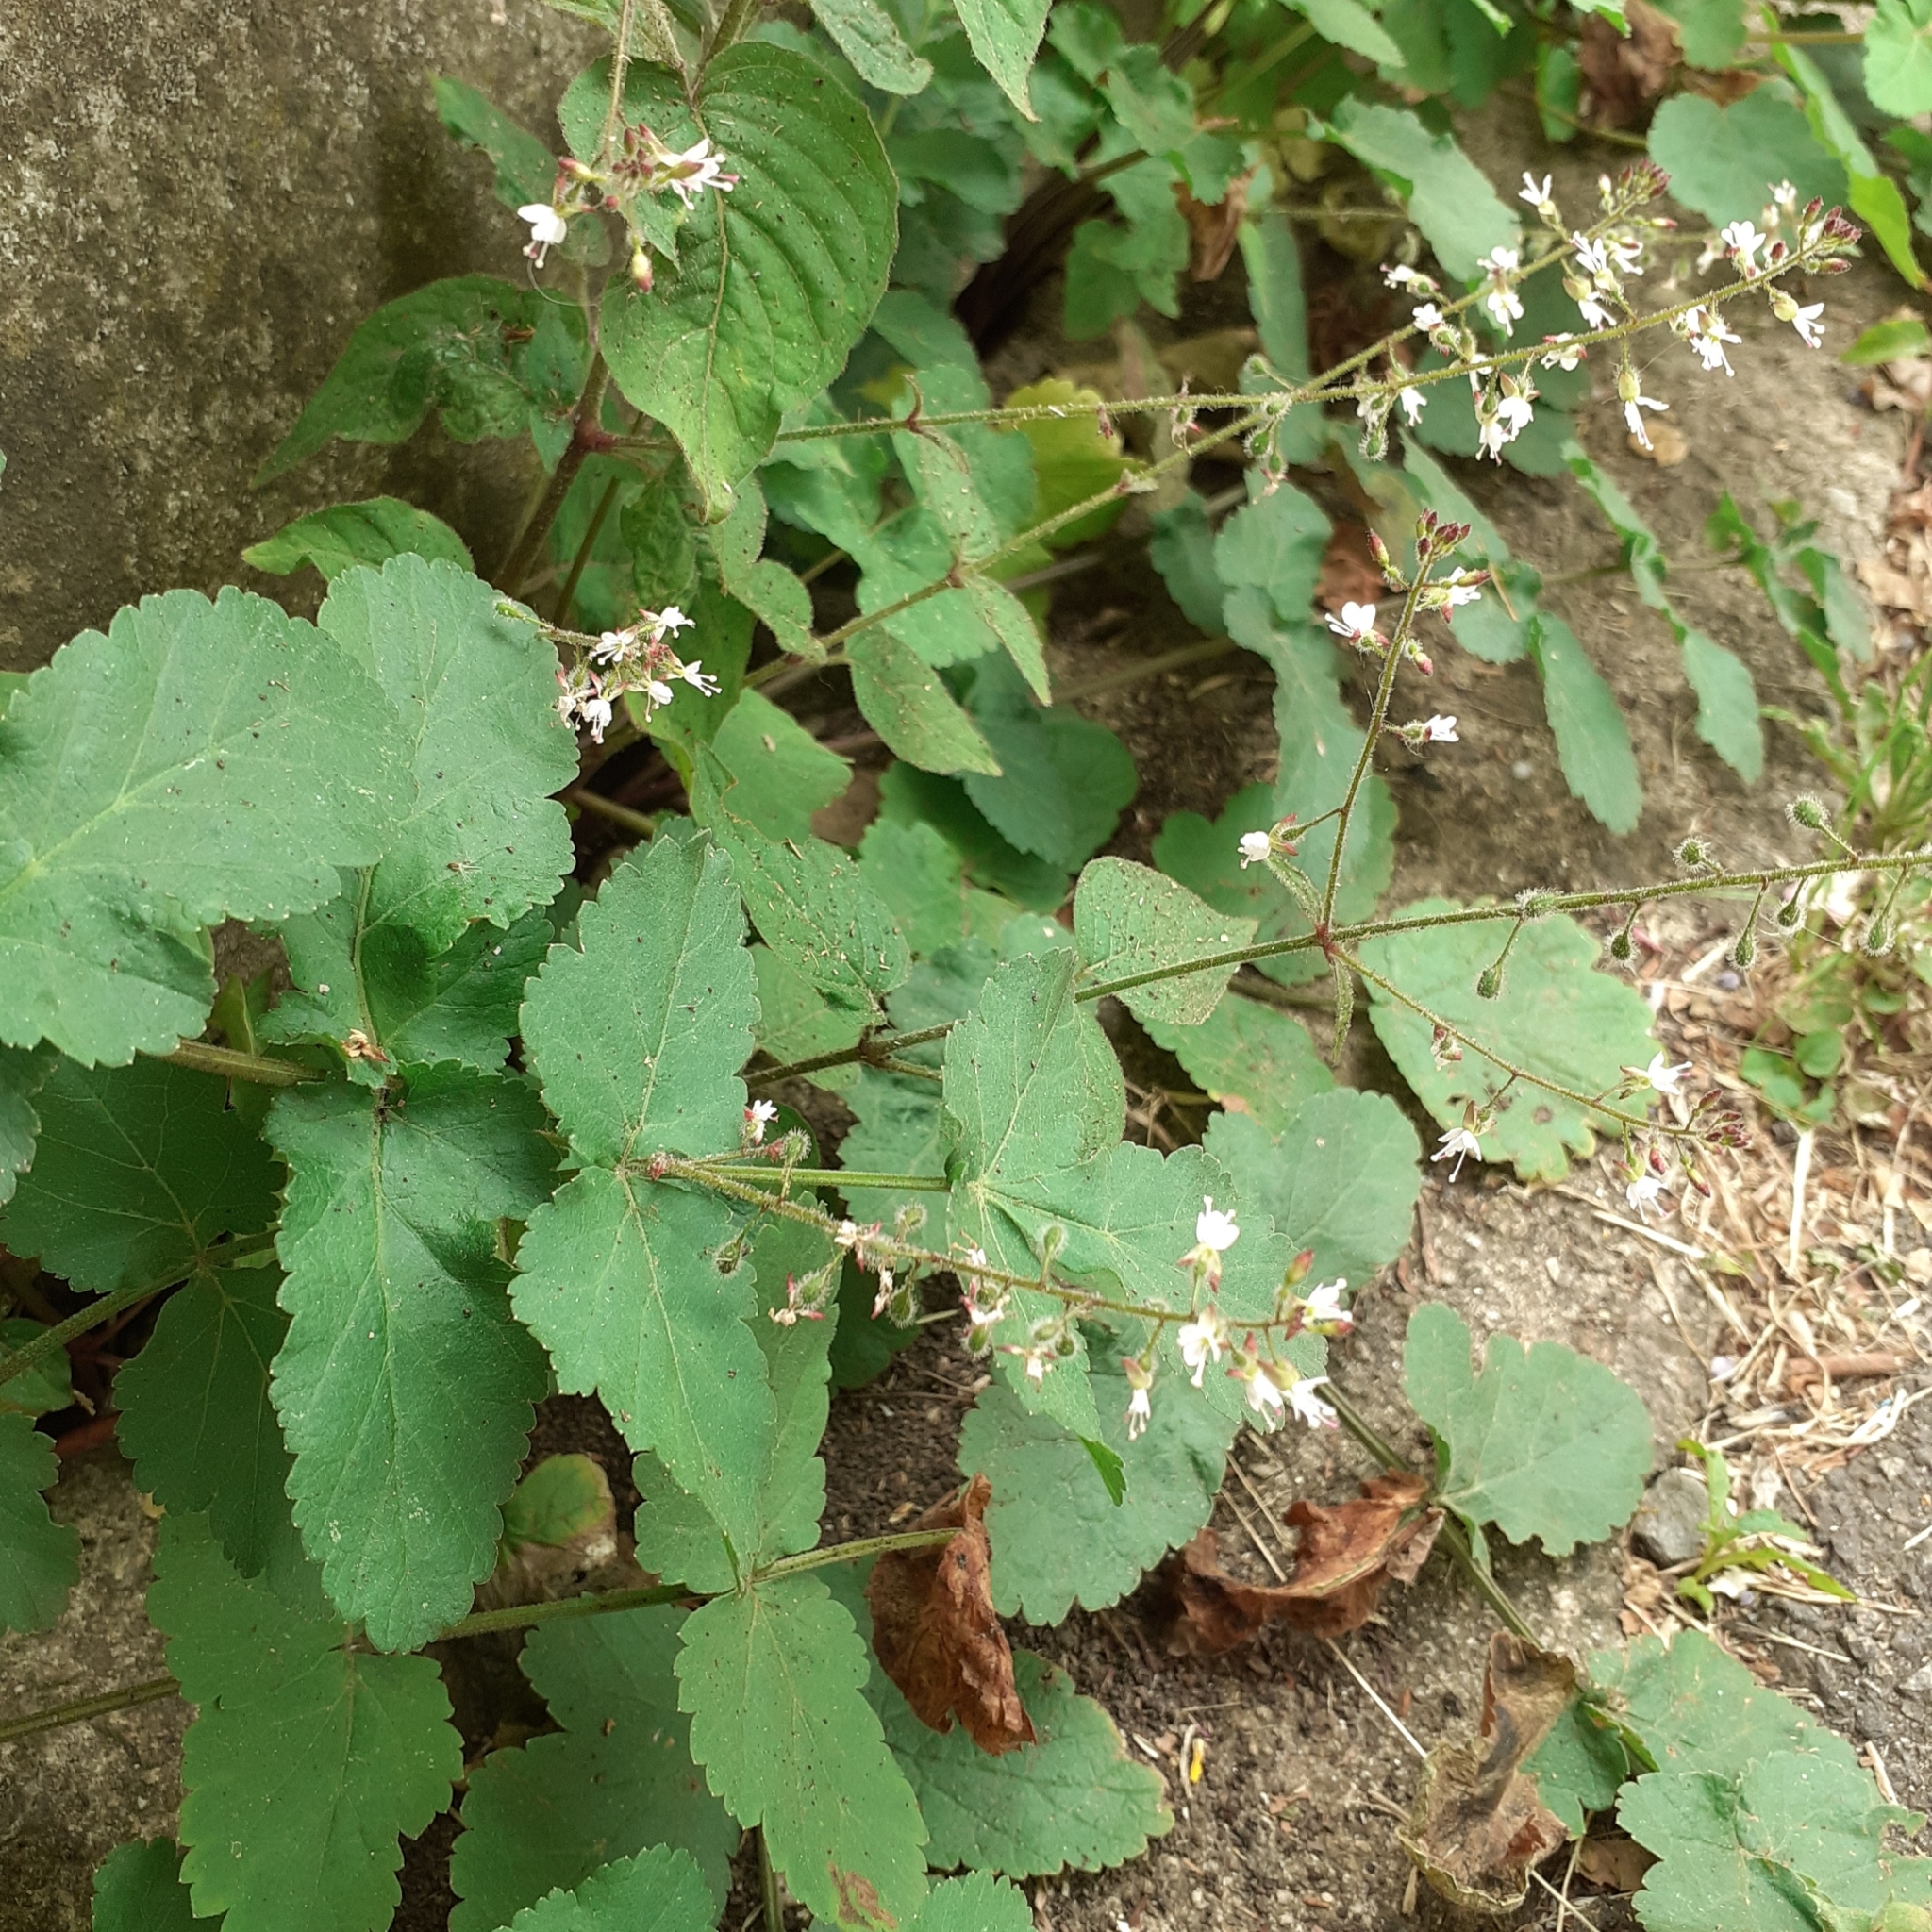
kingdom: Plantae
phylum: Tracheophyta
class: Magnoliopsida
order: Myrtales
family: Onagraceae
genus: Circaea
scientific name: Circaea lutetiana
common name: Enchanter's-nightshade
